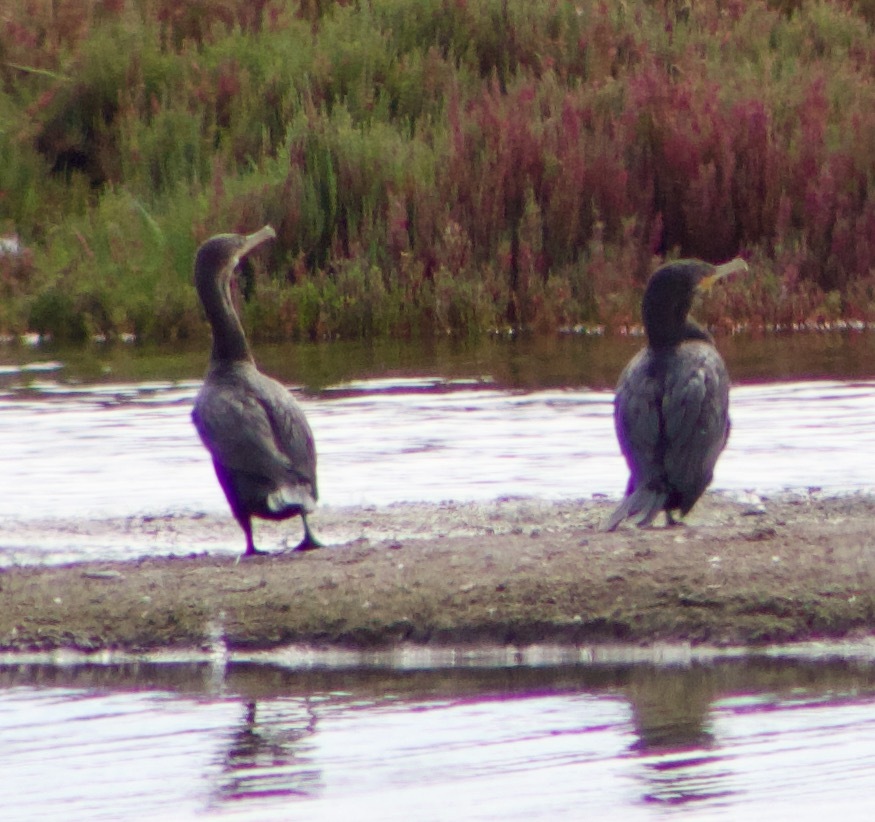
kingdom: Animalia
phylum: Chordata
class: Aves
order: Suliformes
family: Phalacrocoracidae
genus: Phalacrocorax
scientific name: Phalacrocorax brasilianus
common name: Neotropic cormorant
